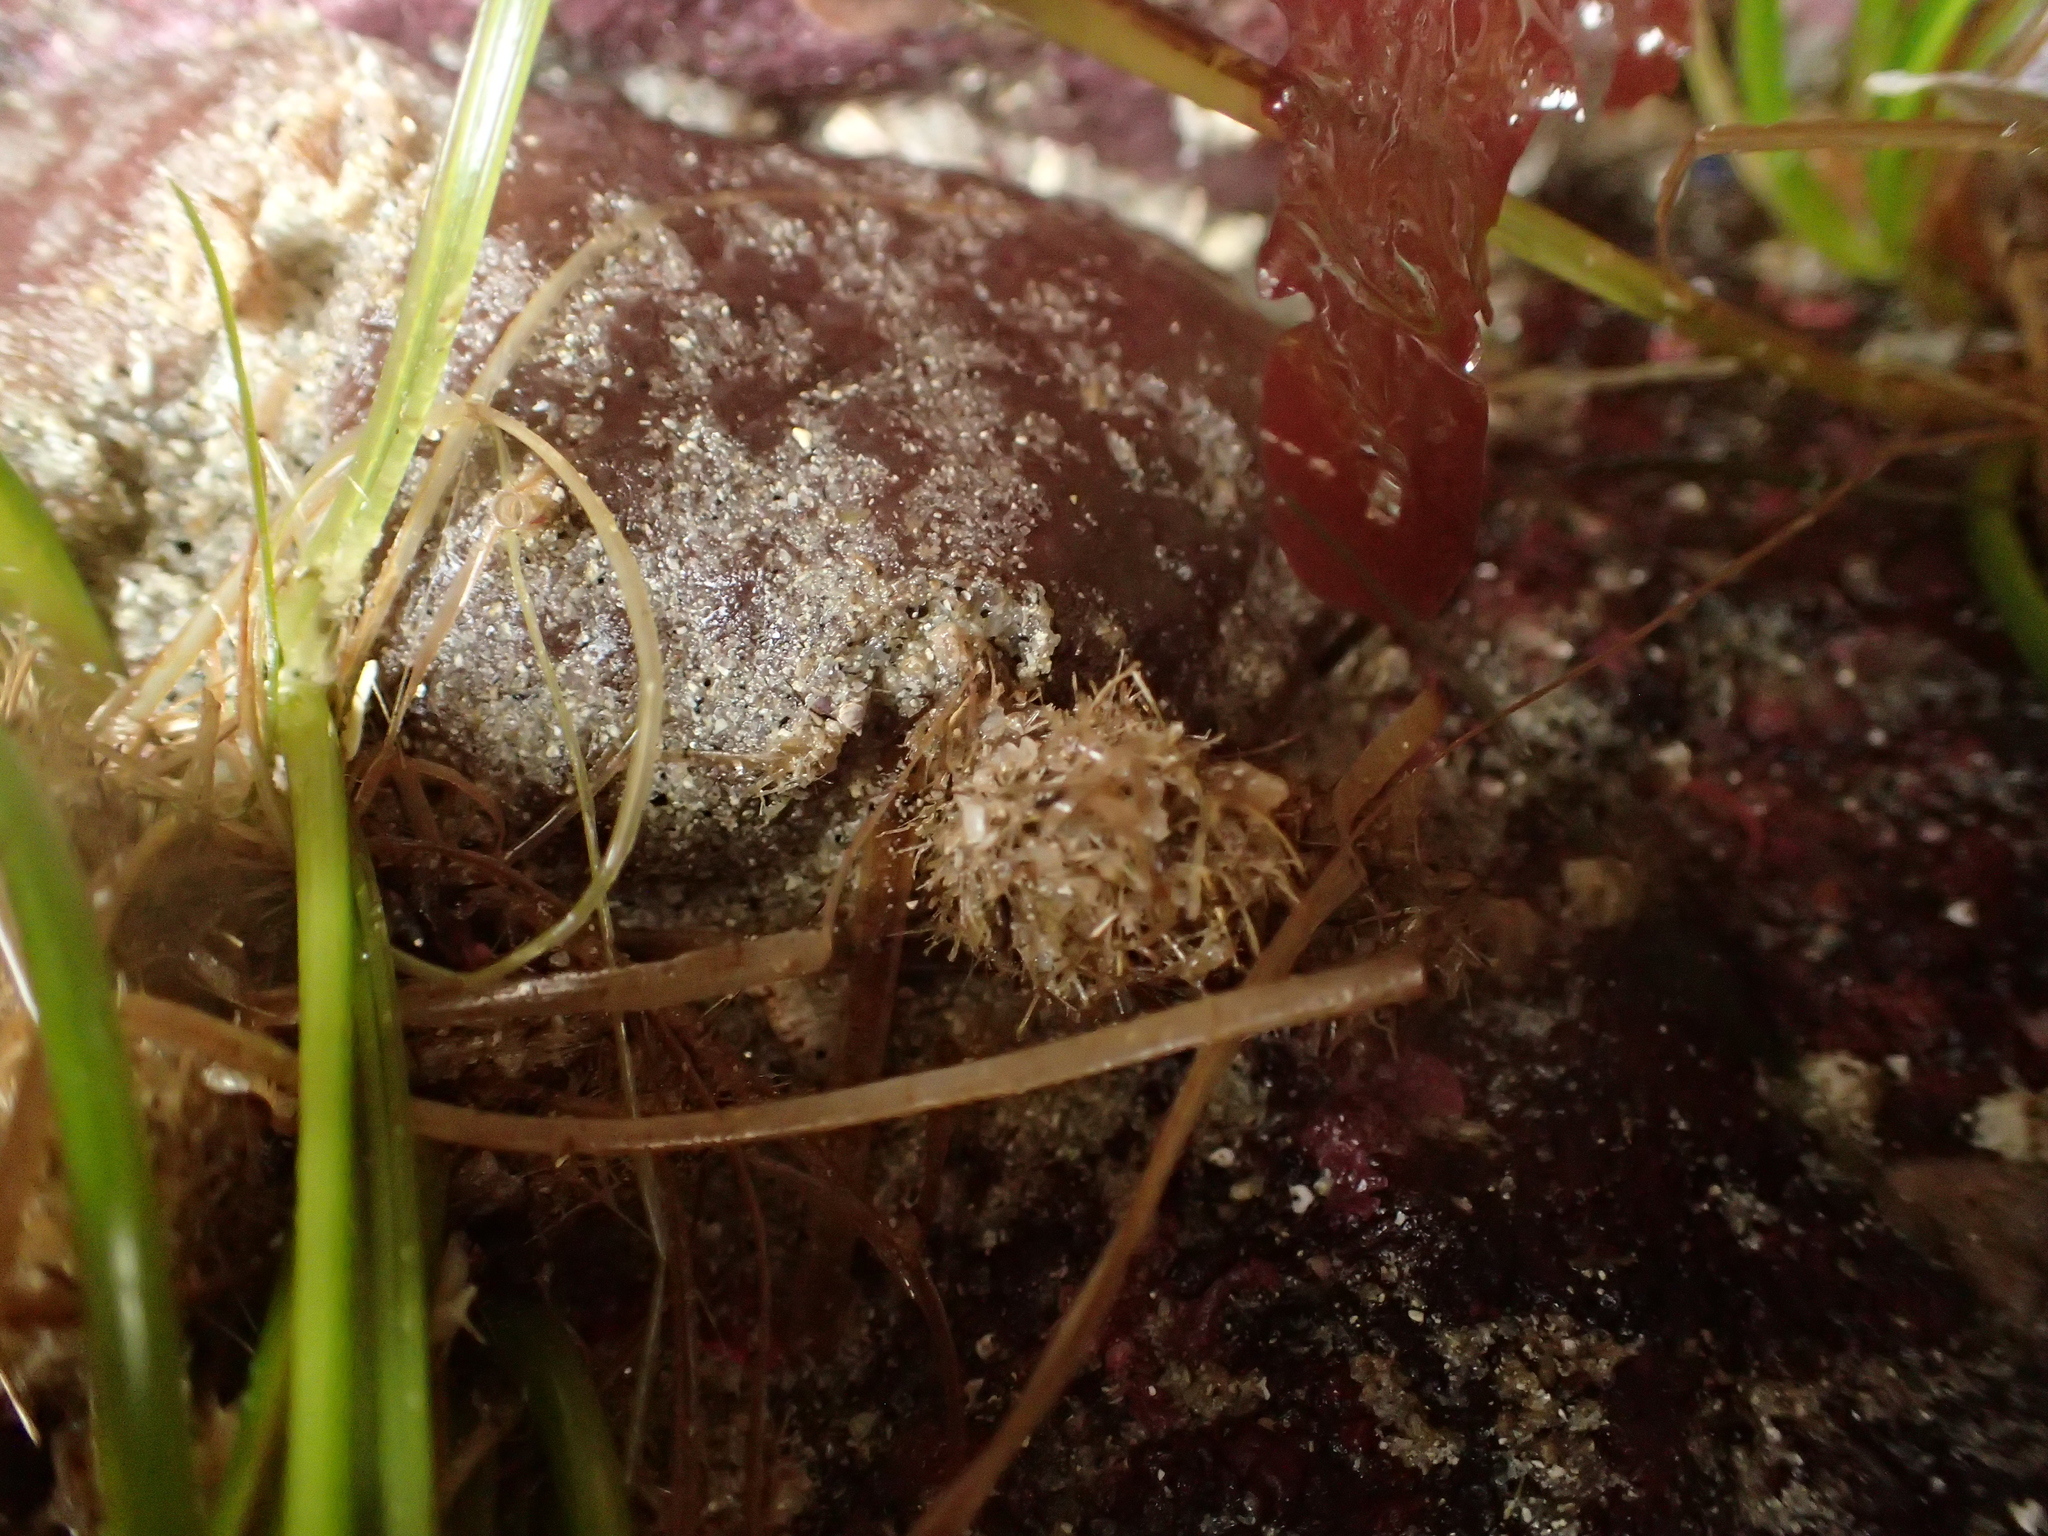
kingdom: Animalia
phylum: Annelida
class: Polychaeta
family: Terebellidae
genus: Pista
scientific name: Pista elongata
